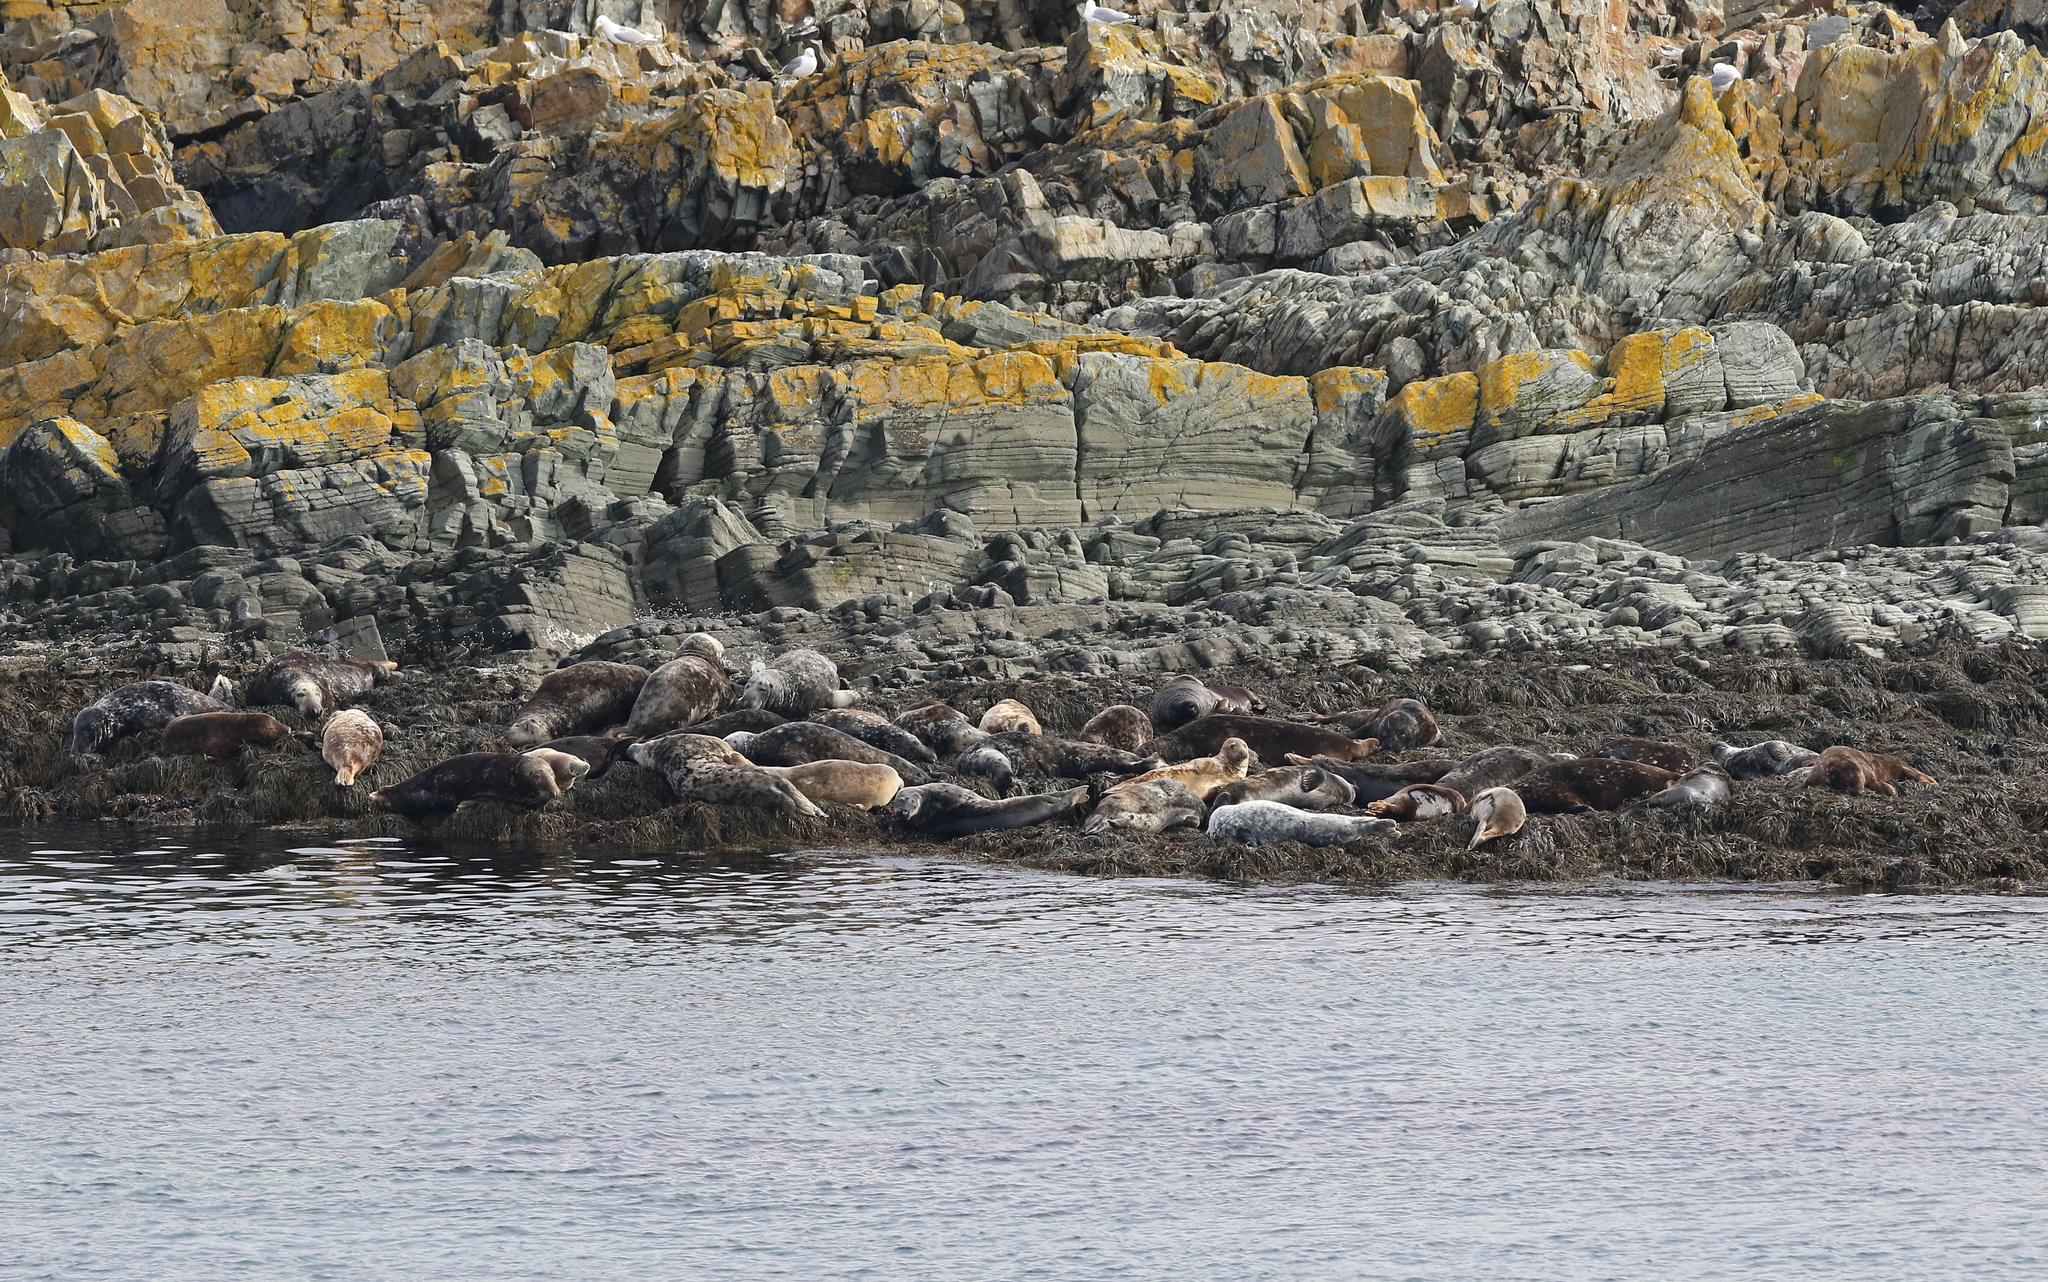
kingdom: Animalia
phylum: Chordata
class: Mammalia
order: Carnivora
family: Phocidae
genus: Halichoerus
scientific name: Halichoerus grypus
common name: Grey seal
